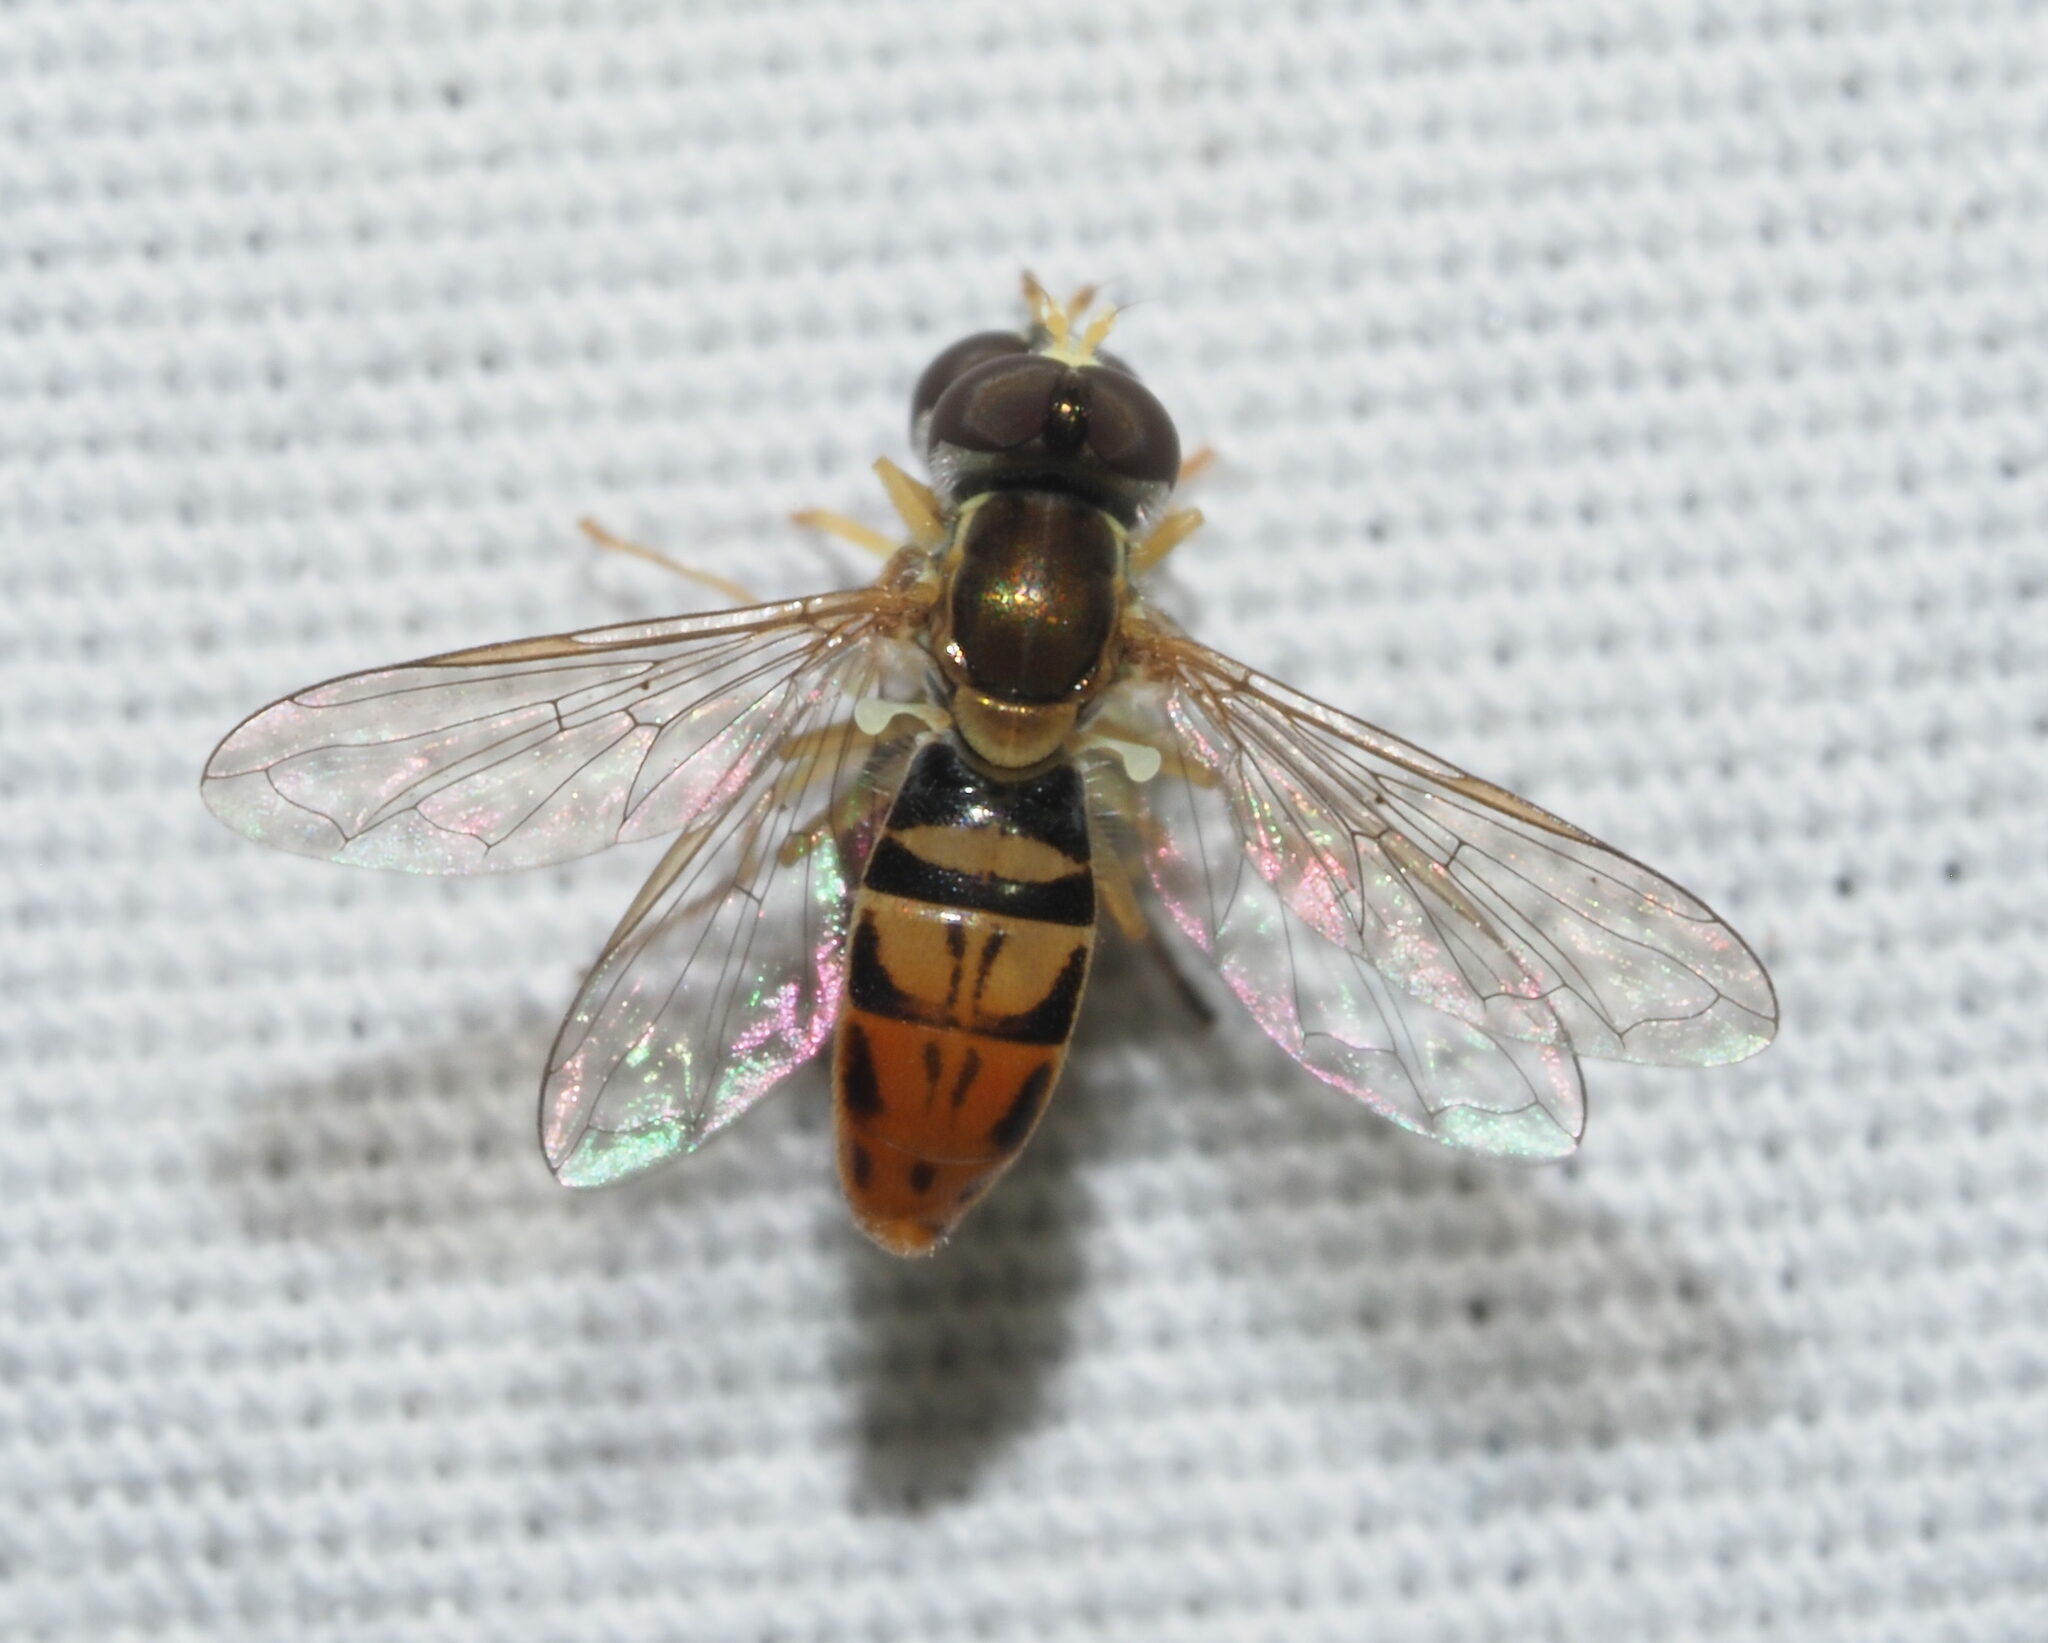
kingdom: Animalia
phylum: Arthropoda
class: Insecta
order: Diptera
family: Syrphidae
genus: Toxomerus
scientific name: Toxomerus marginatus
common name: Syrphid fly
